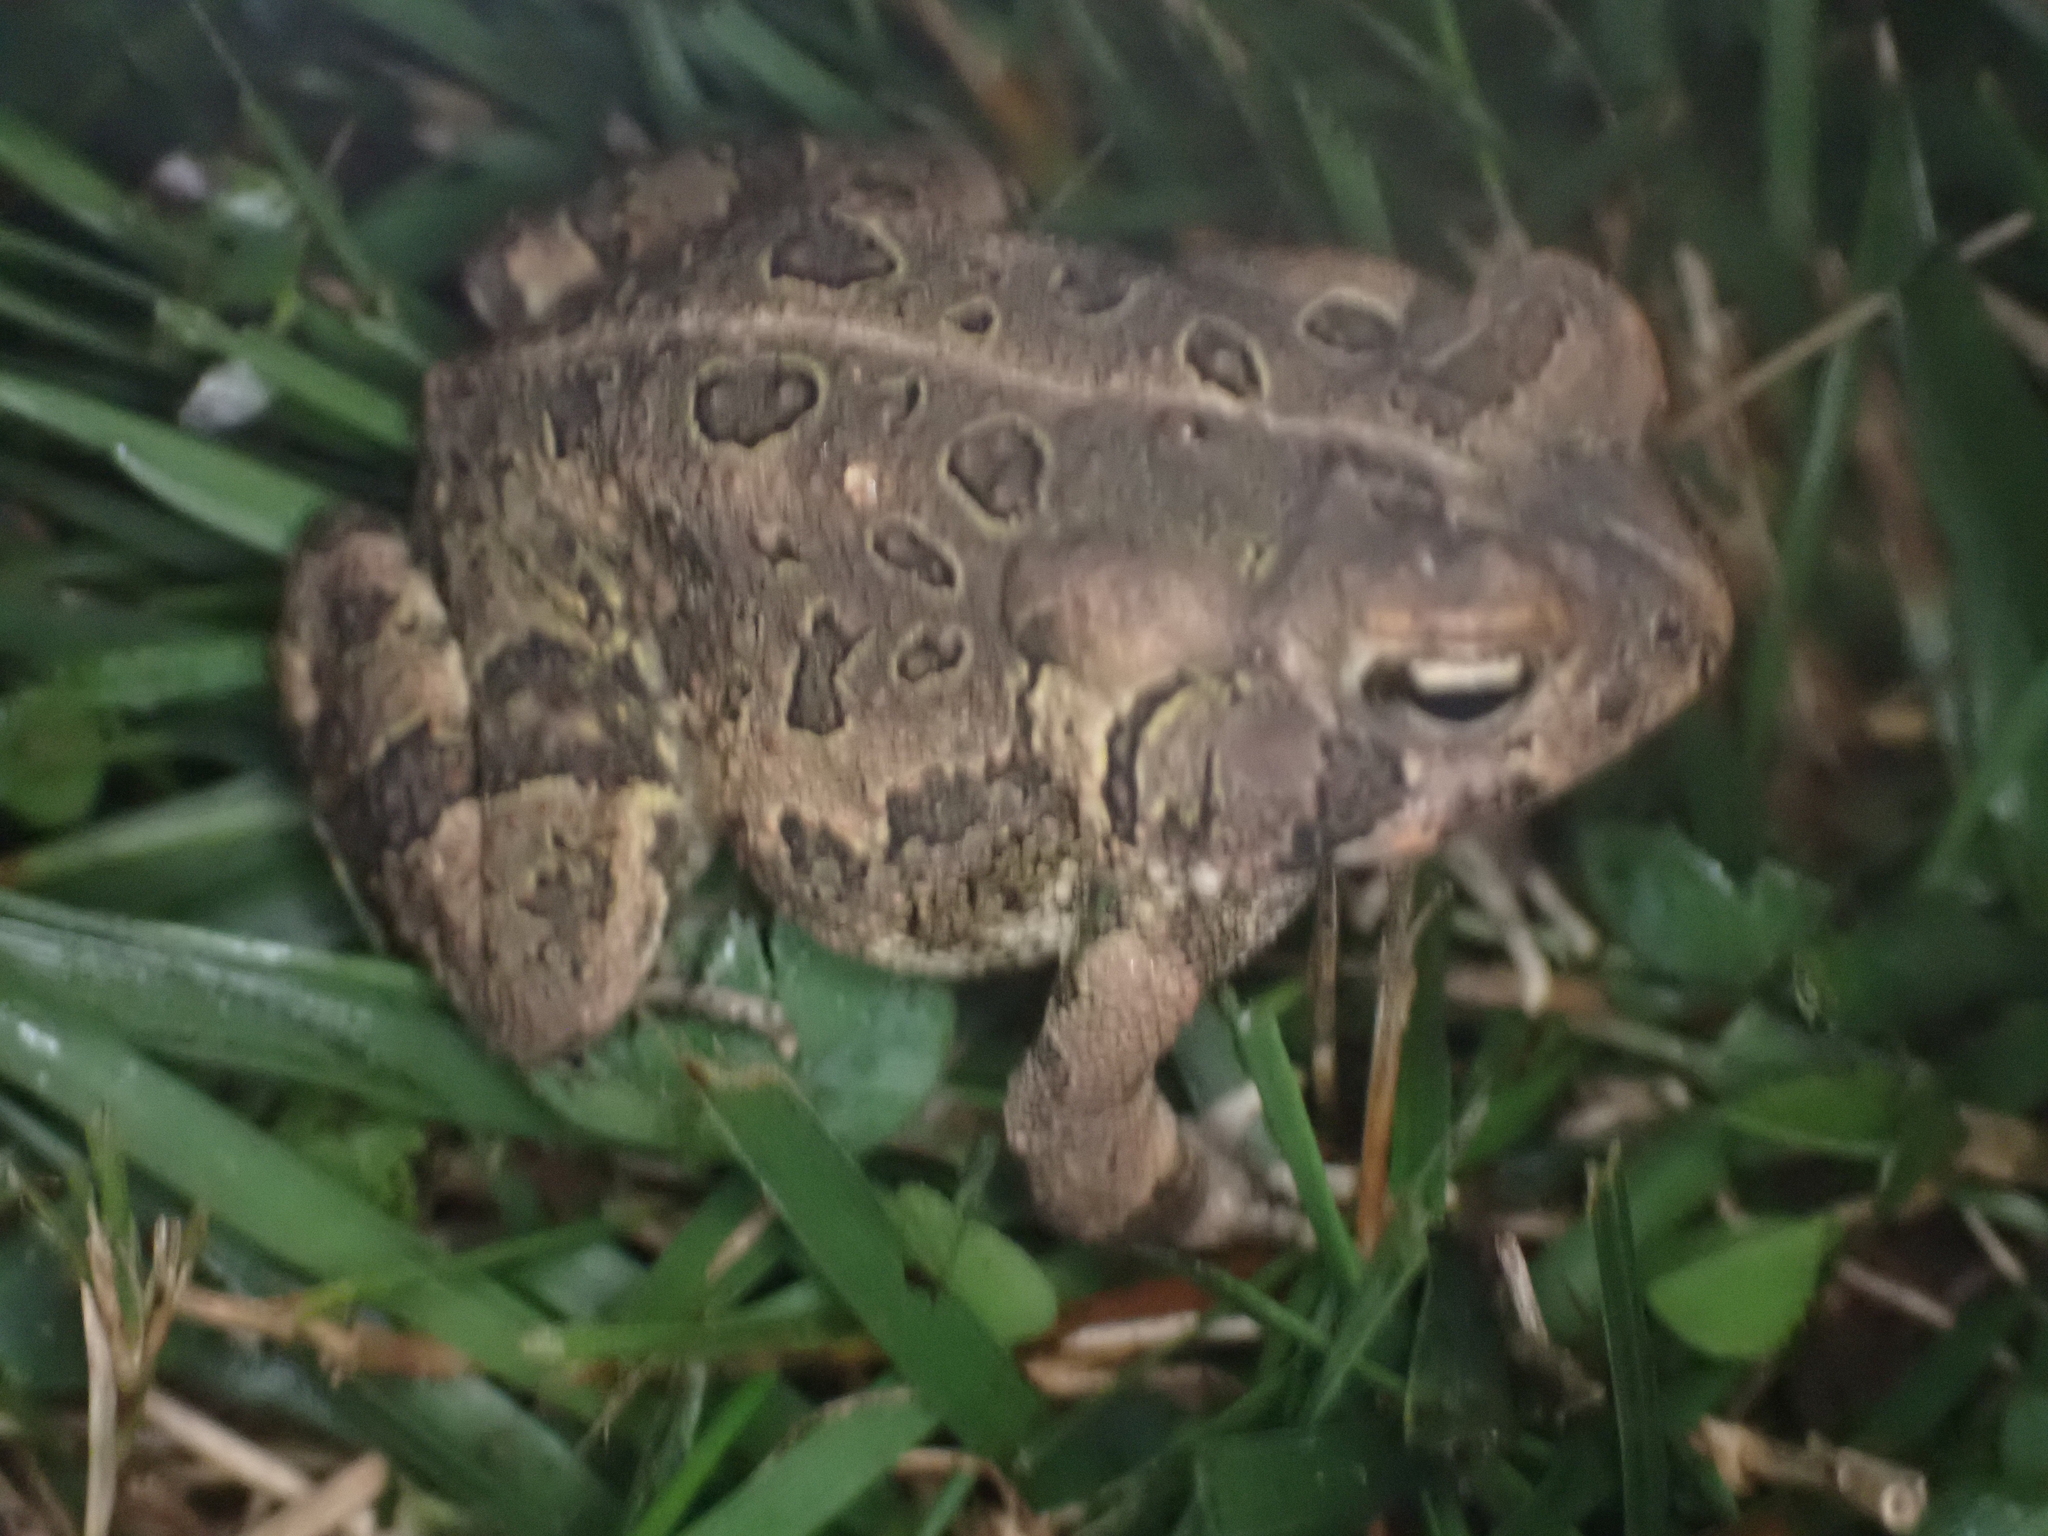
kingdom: Animalia
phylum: Chordata
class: Amphibia
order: Anura
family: Bufonidae
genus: Anaxyrus
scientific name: Anaxyrus fowleri
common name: Fowler's toad
